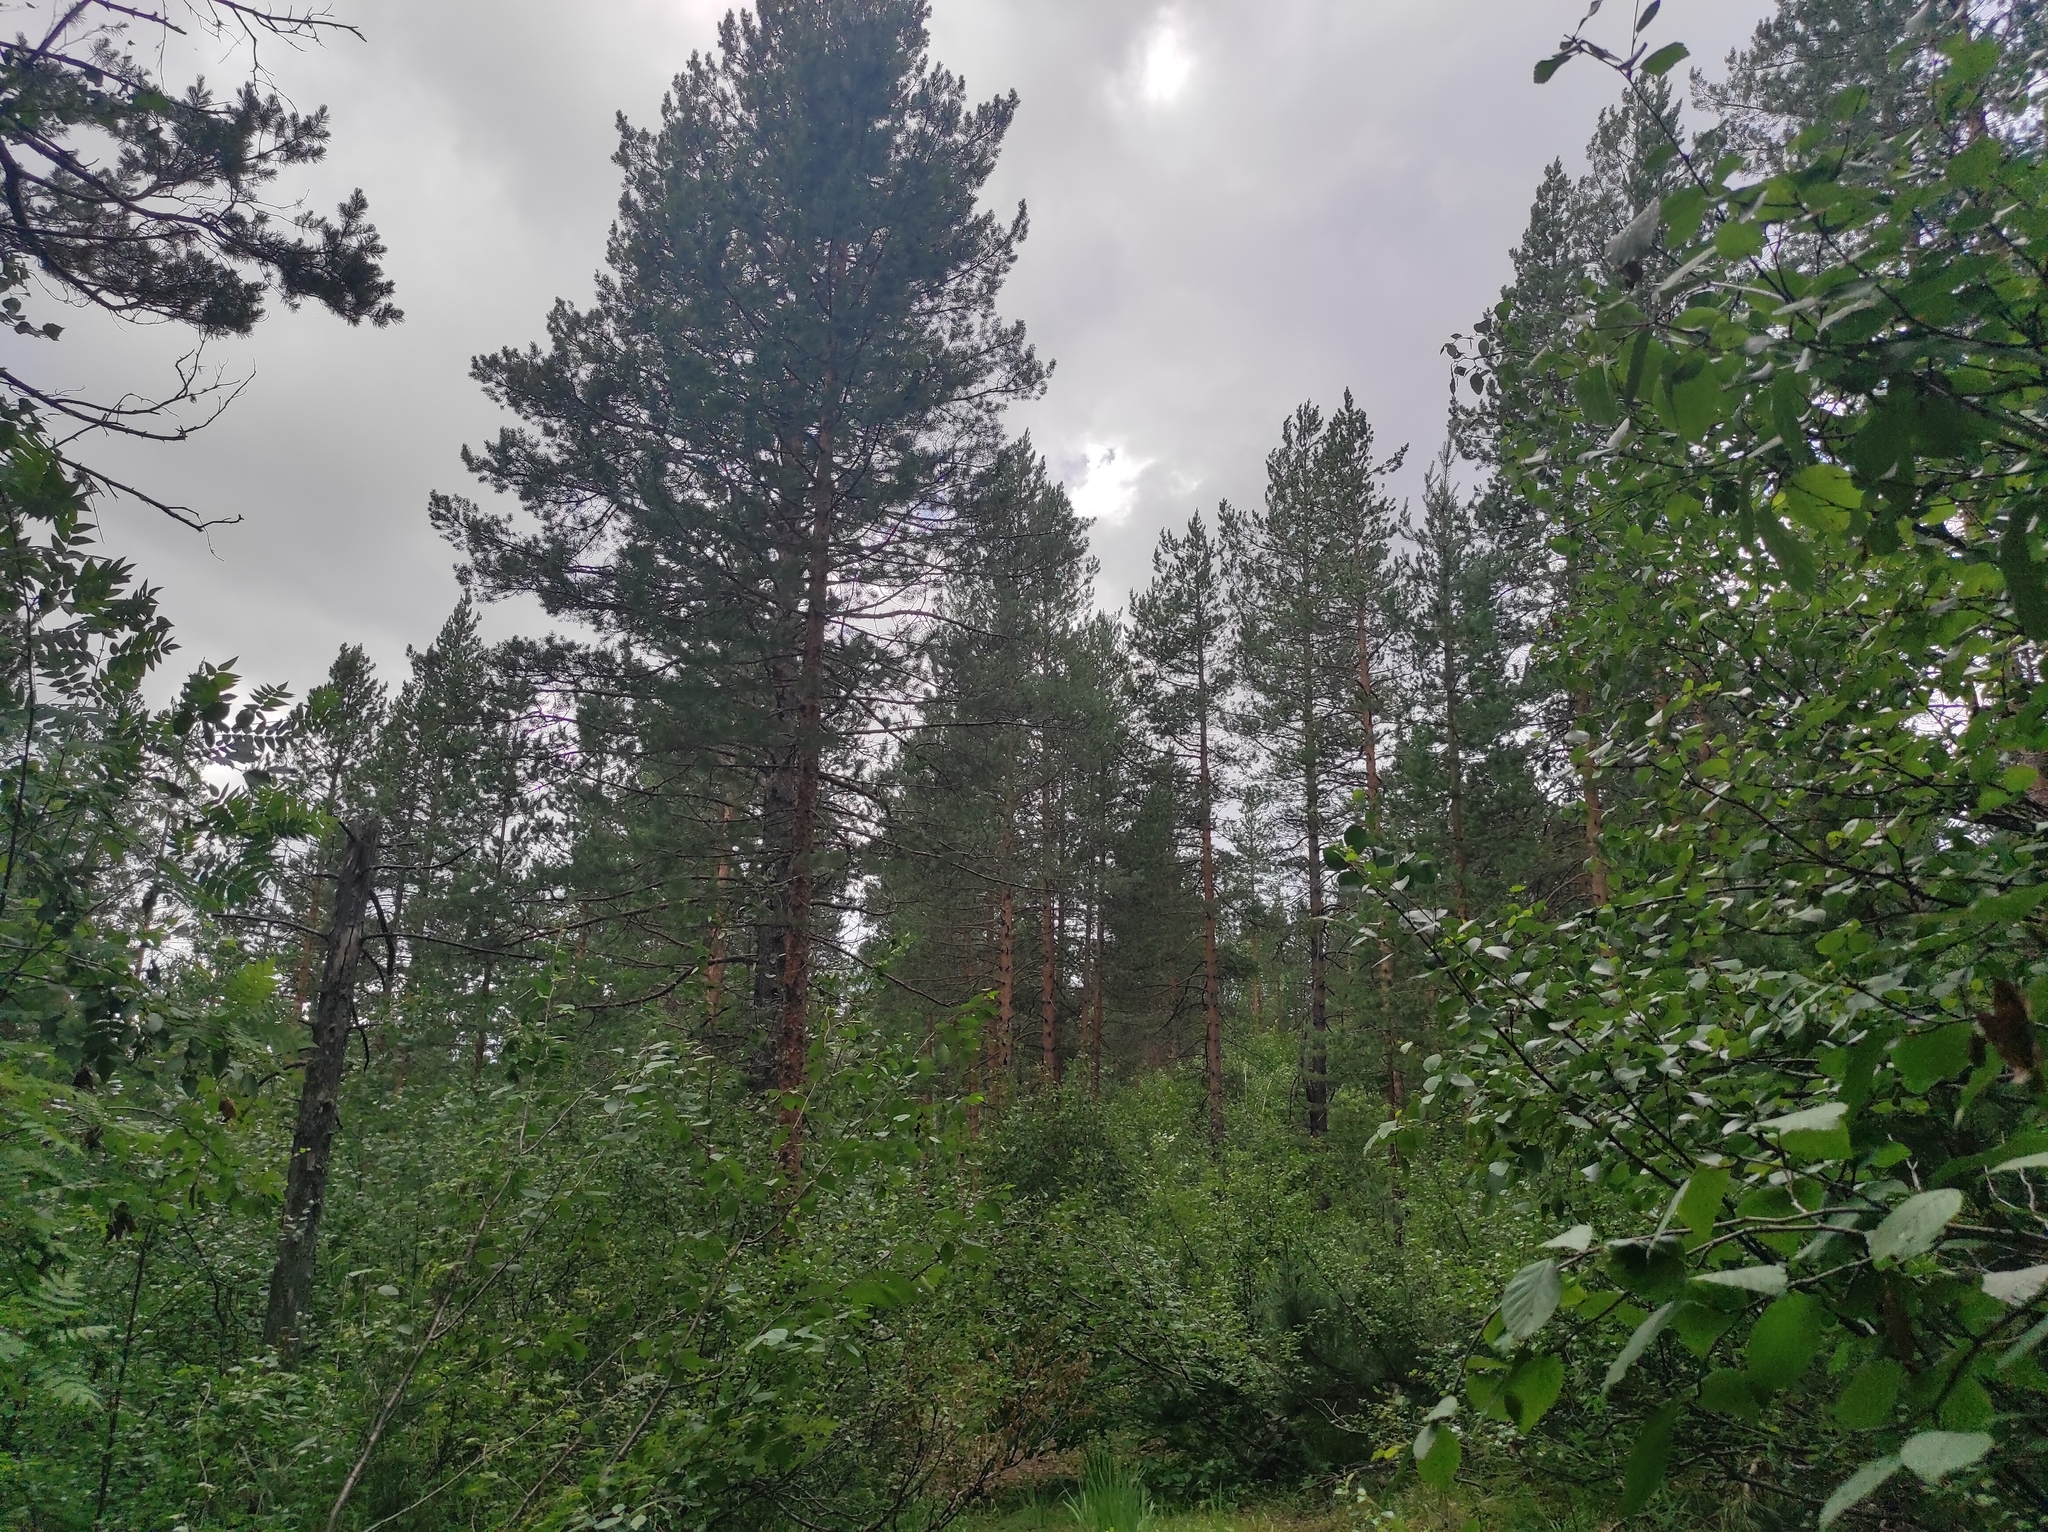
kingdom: Plantae
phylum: Tracheophyta
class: Pinopsida
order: Pinales
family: Pinaceae
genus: Pinus
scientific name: Pinus sylvestris
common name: Scots pine
